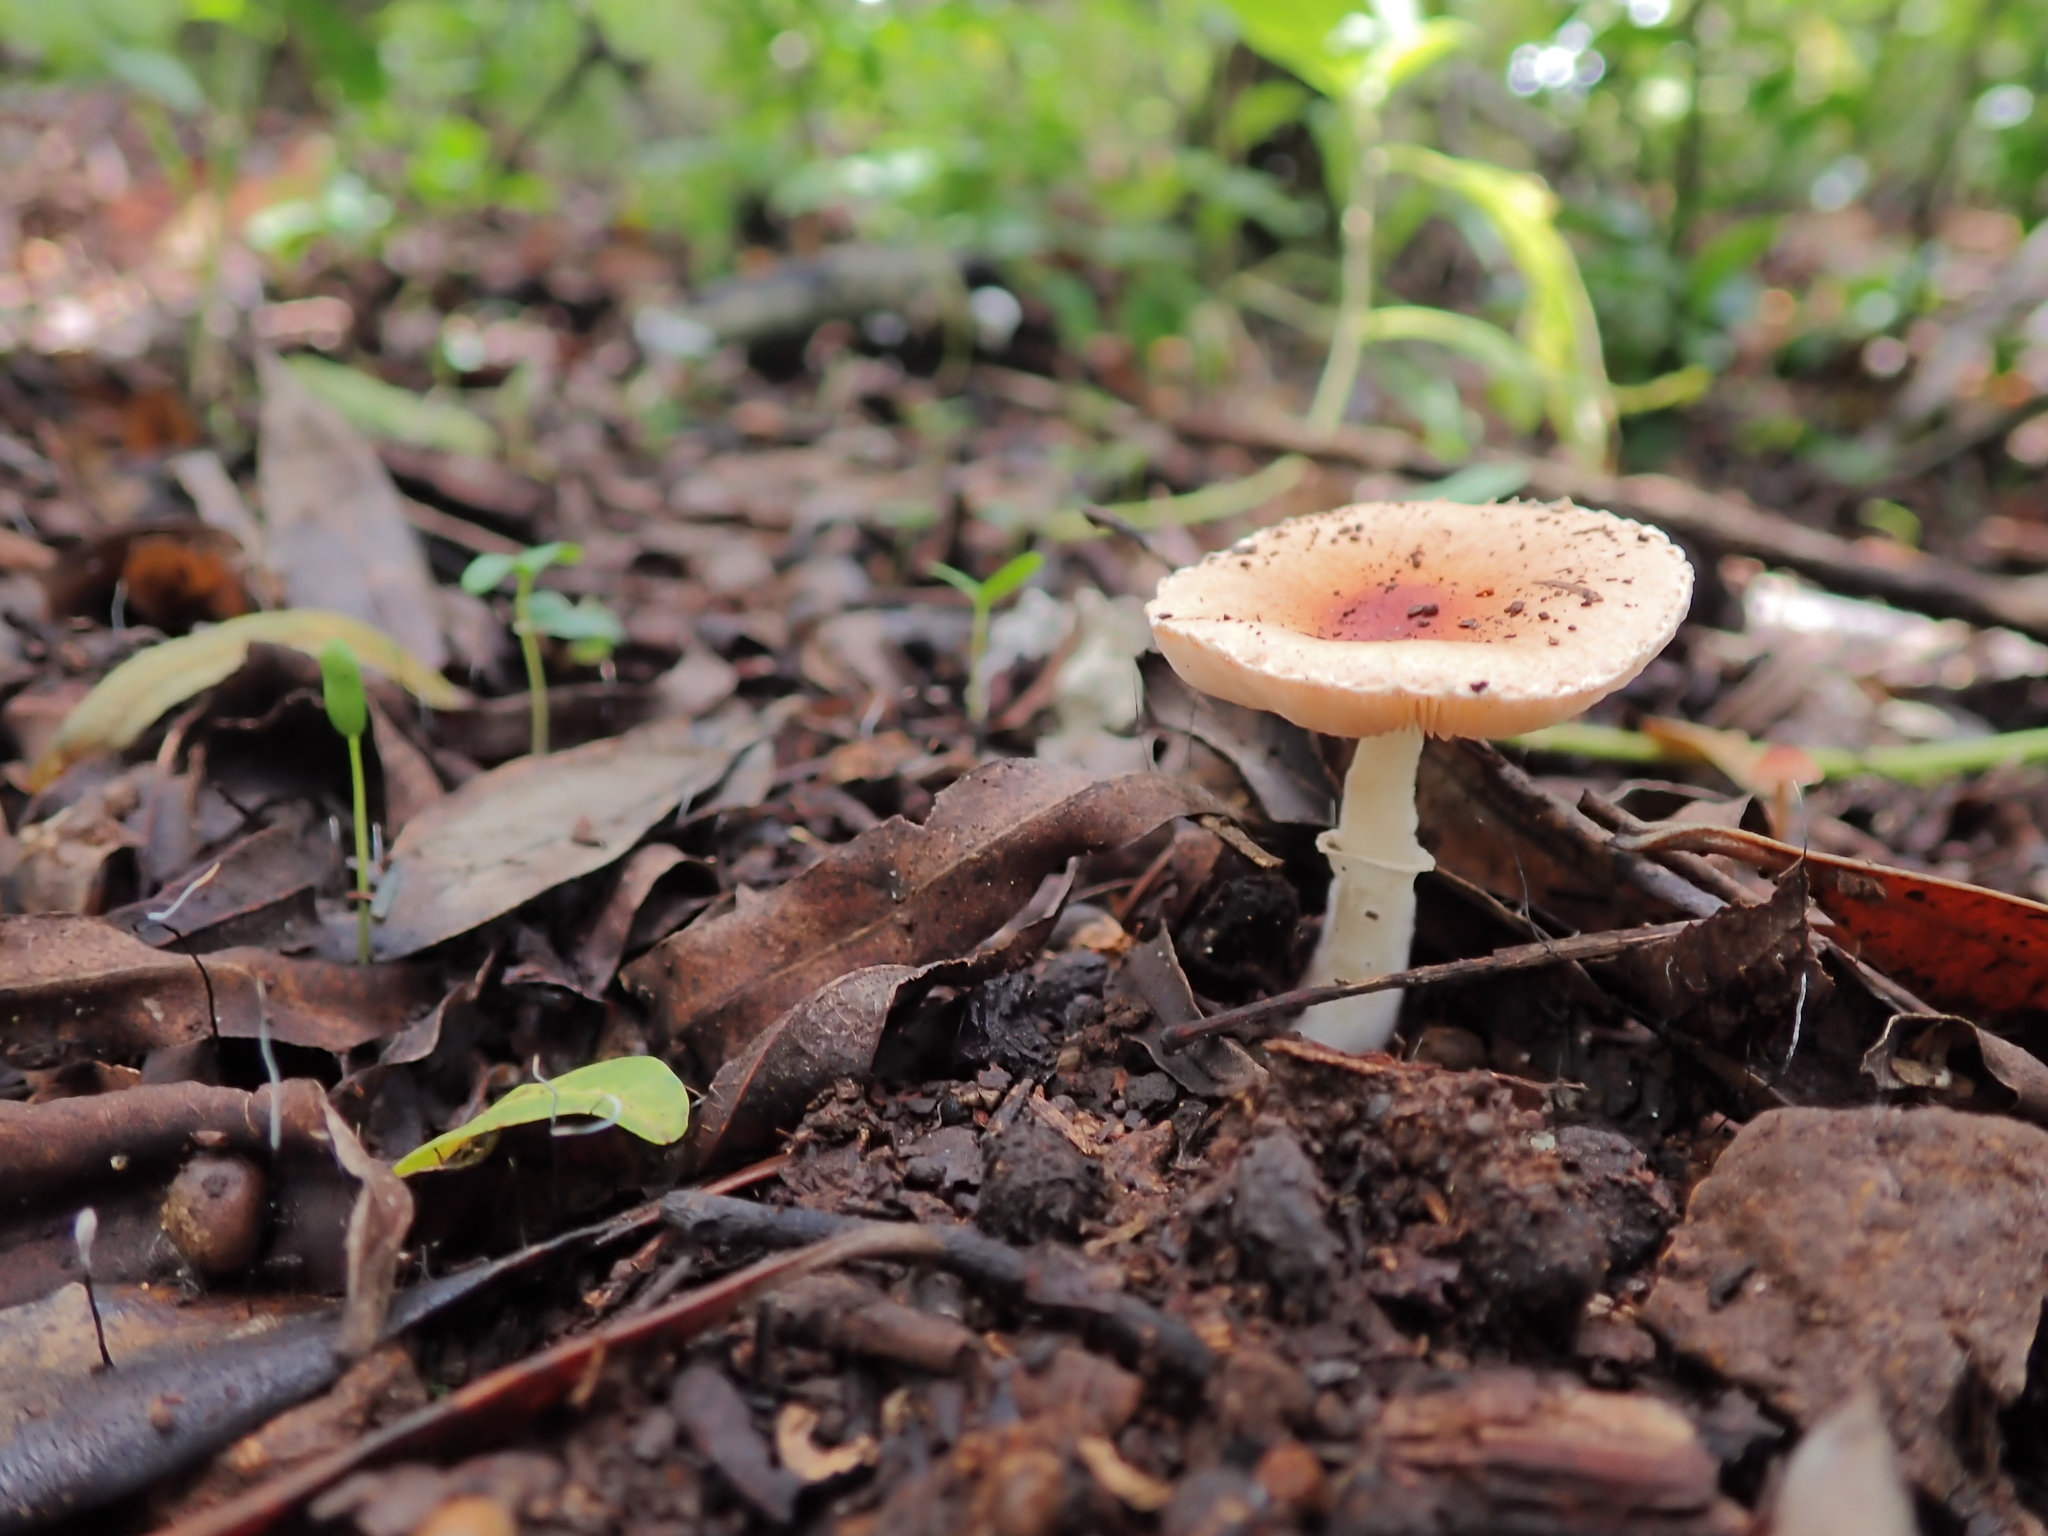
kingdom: Fungi
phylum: Basidiomycota
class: Agaricomycetes
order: Agaricales
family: Agaricaceae
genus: Lepiota
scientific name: Lepiota rubrotinctoides
